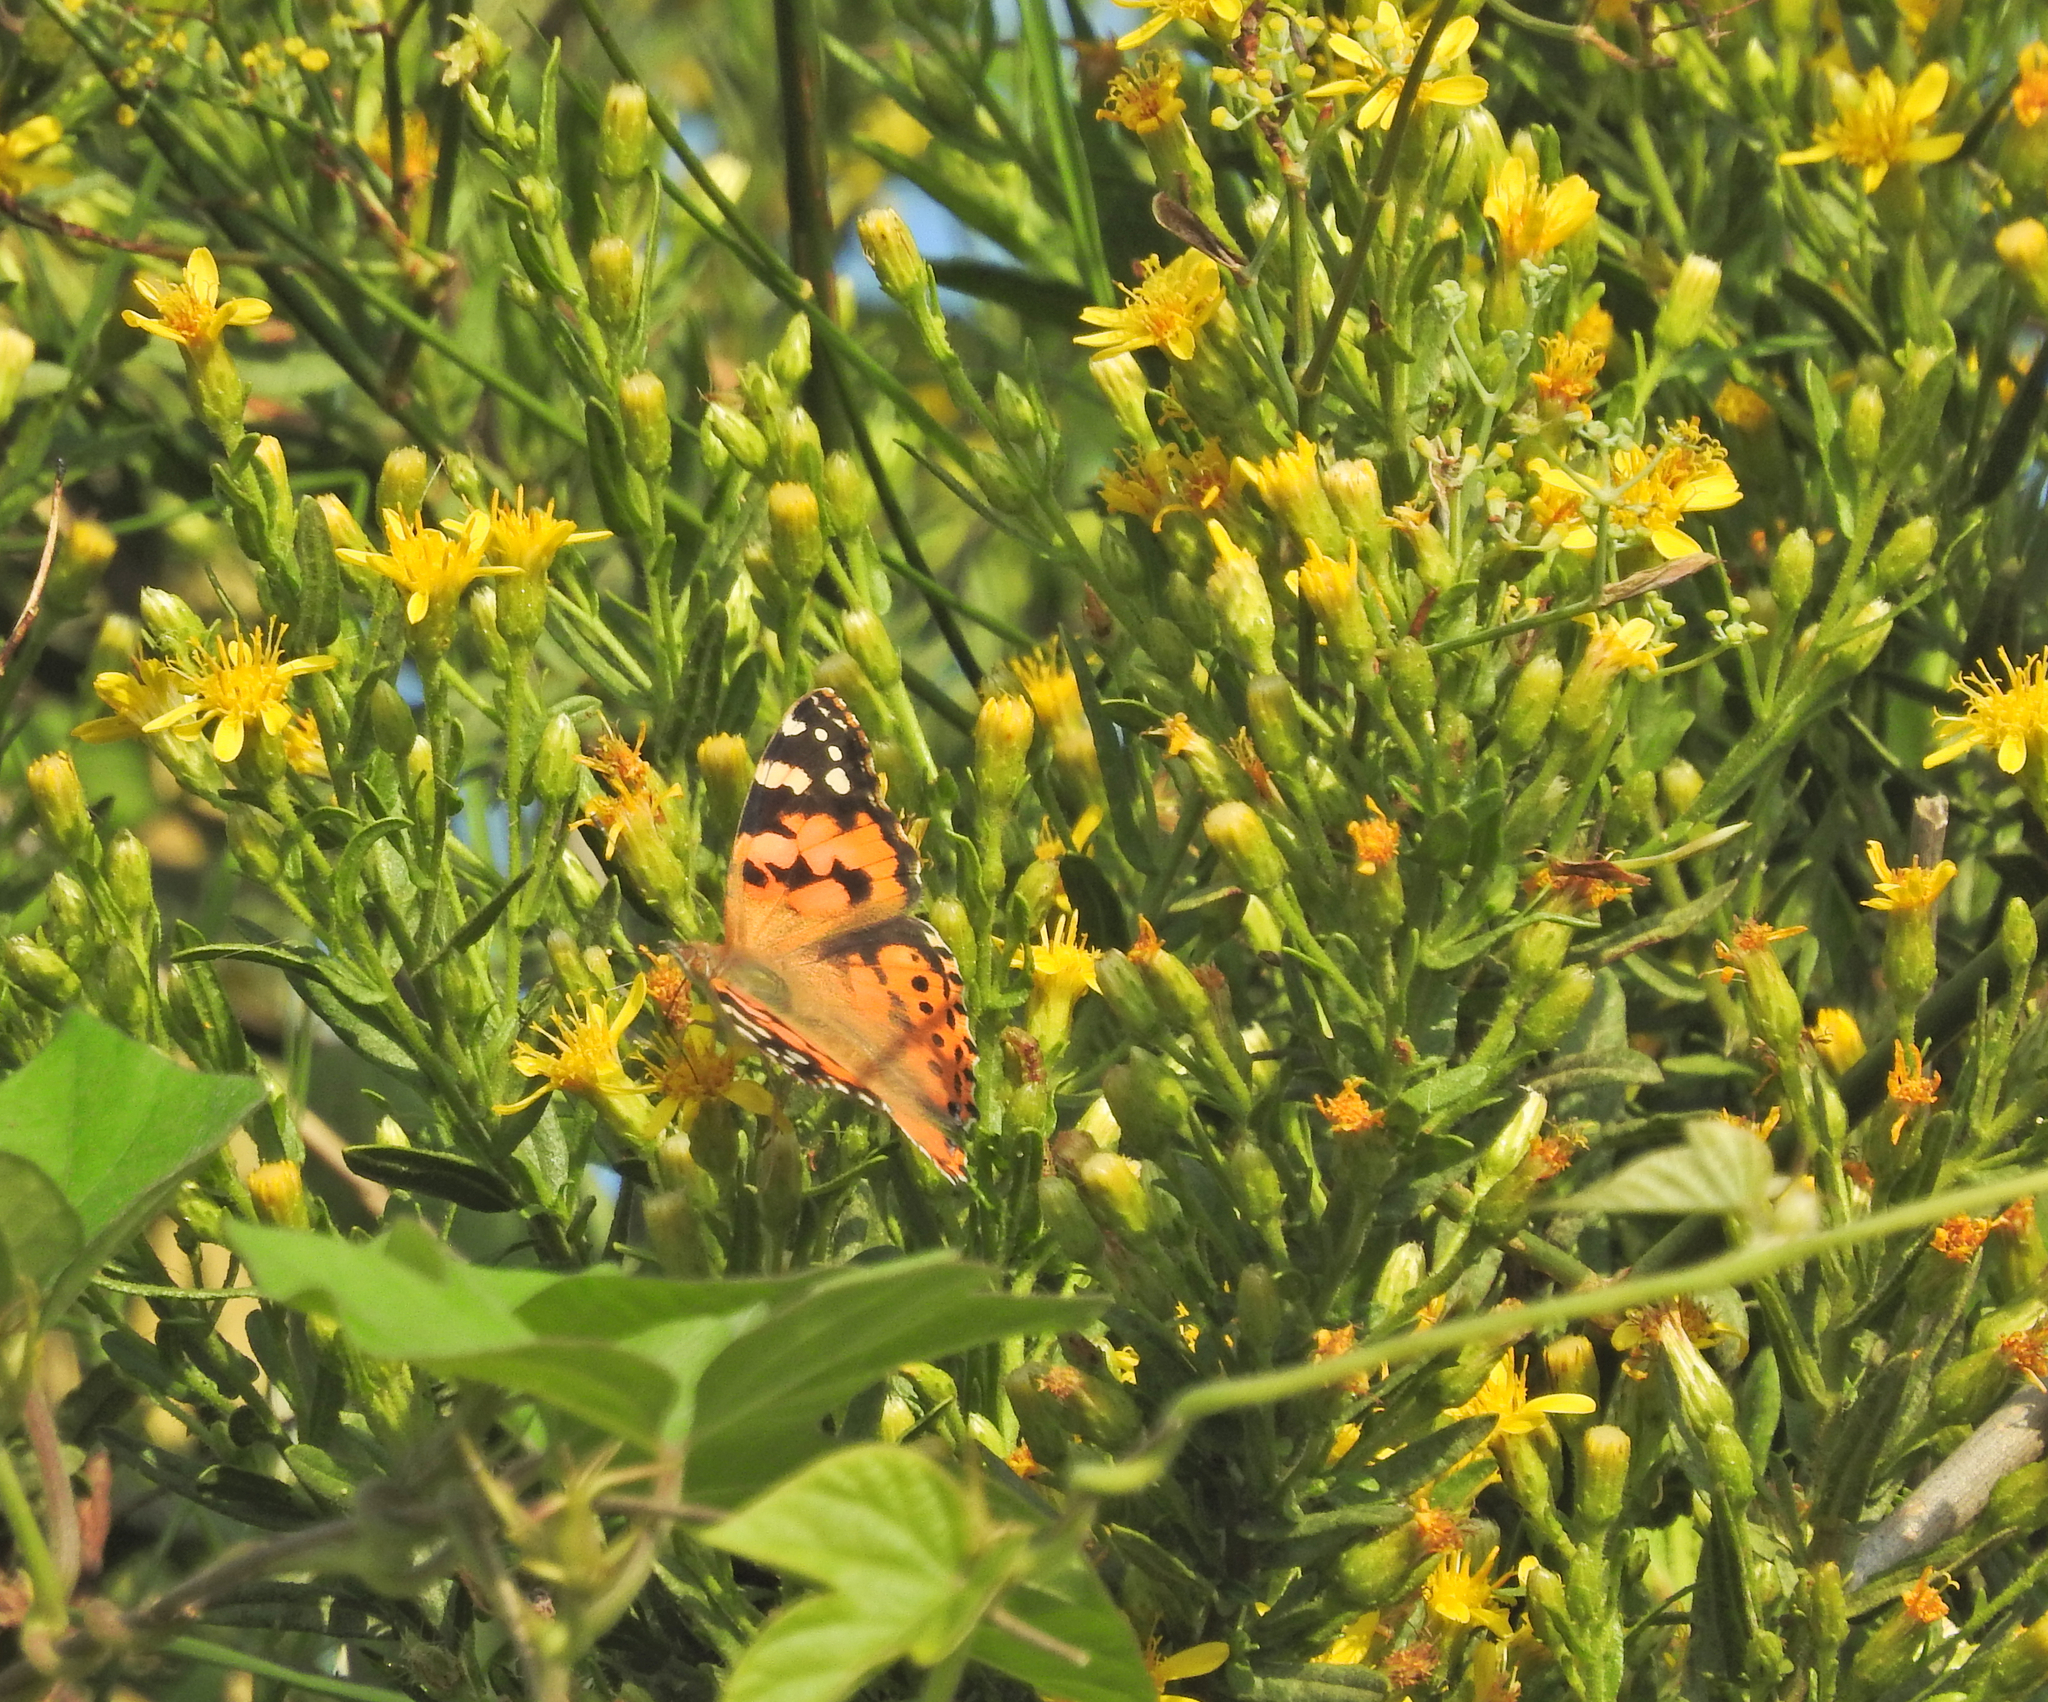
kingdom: Animalia
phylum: Arthropoda
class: Insecta
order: Lepidoptera
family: Nymphalidae
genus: Vanessa
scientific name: Vanessa cardui
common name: Painted lady
